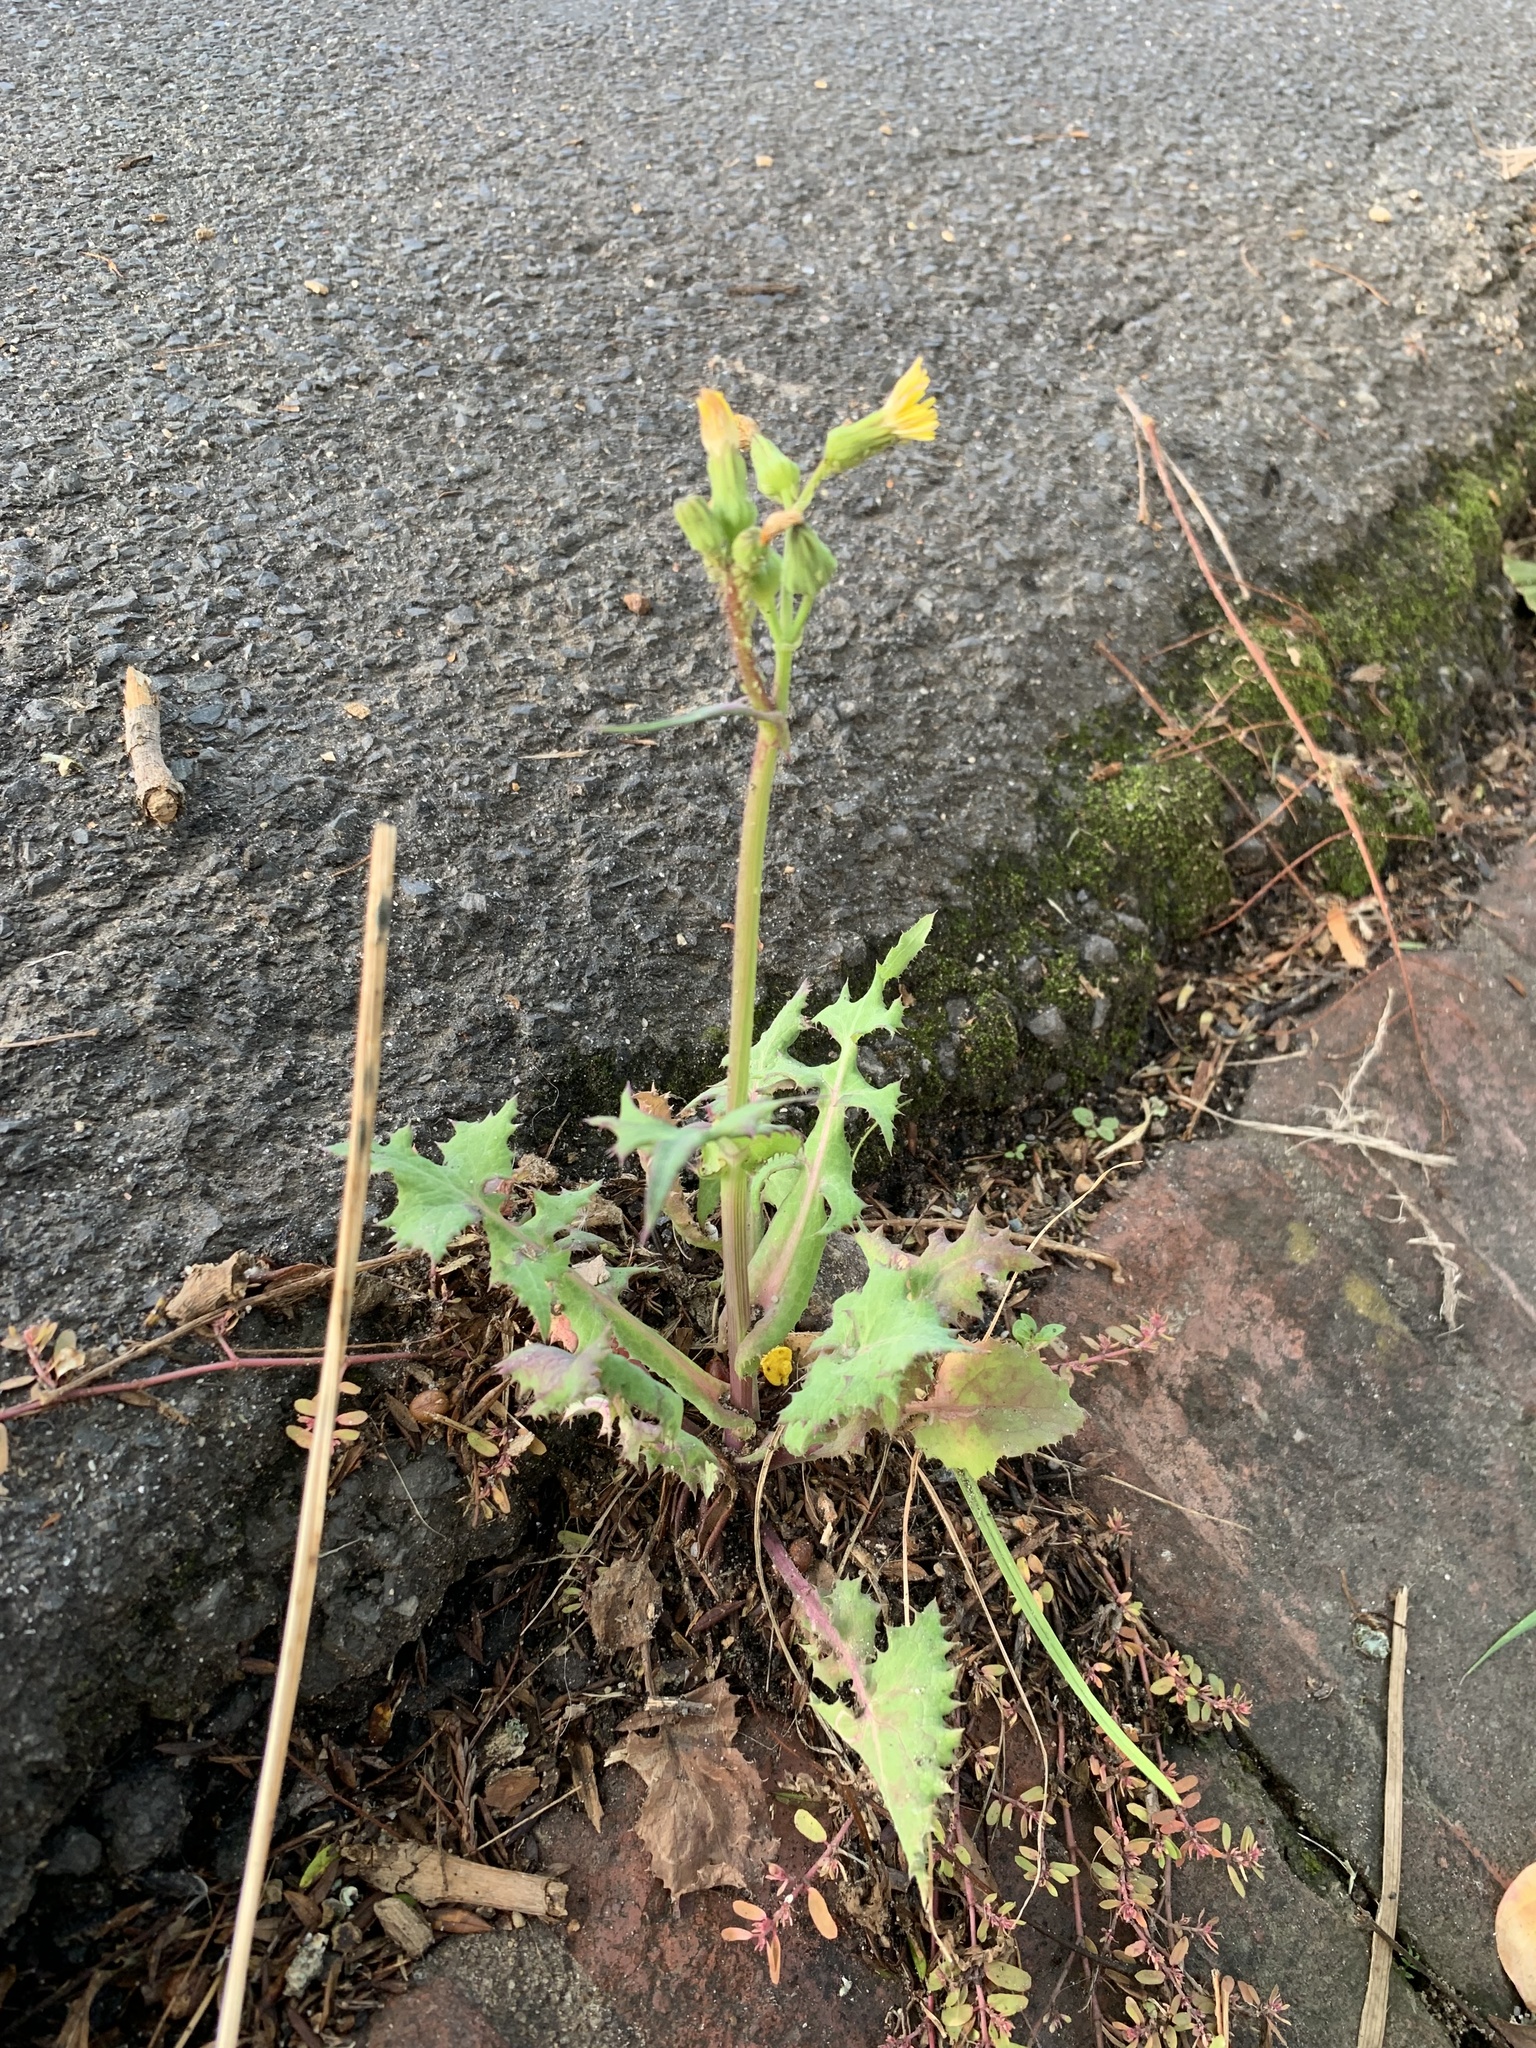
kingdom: Plantae
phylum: Tracheophyta
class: Magnoliopsida
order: Asterales
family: Asteraceae
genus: Sonchus
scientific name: Sonchus oleraceus
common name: Common sowthistle
